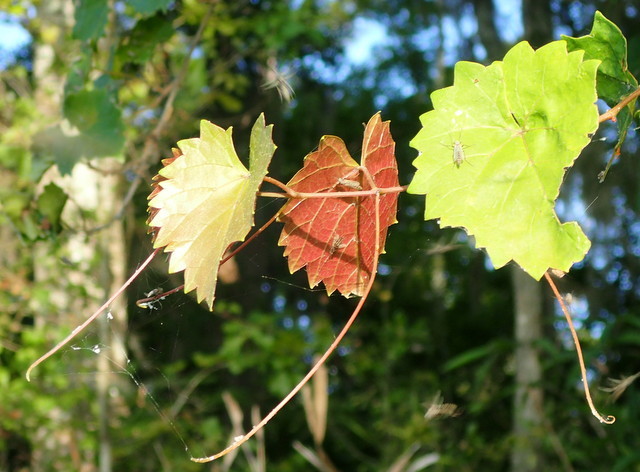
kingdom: Plantae
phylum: Tracheophyta
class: Magnoliopsida
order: Vitales
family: Vitaceae
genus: Vitis
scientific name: Vitis rotundifolia
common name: Muscadine grape
